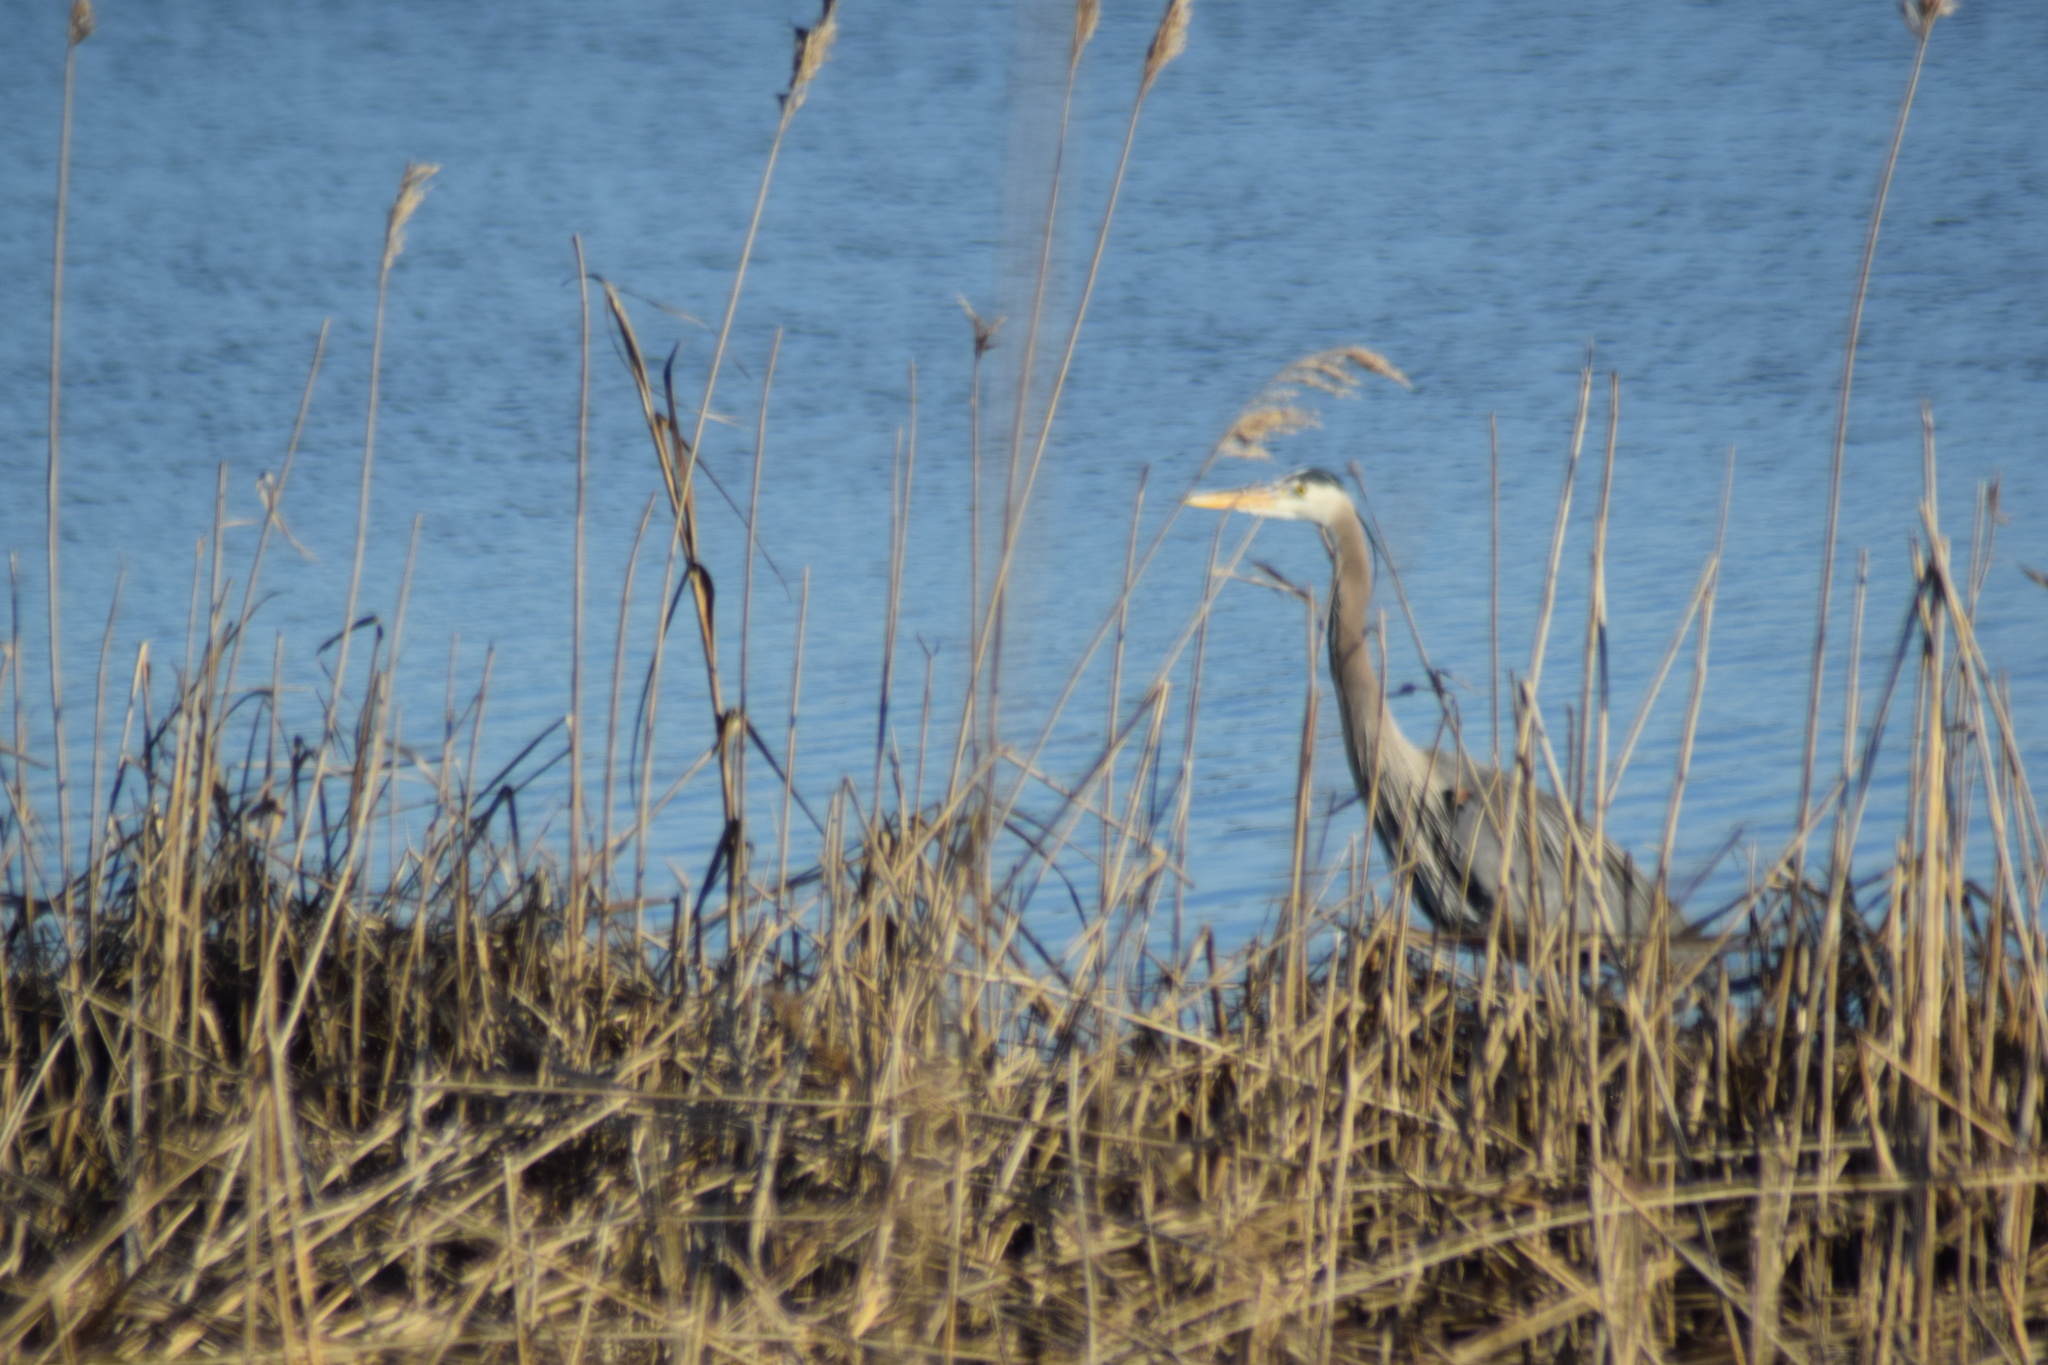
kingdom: Animalia
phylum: Chordata
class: Aves
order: Pelecaniformes
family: Ardeidae
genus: Ardea
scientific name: Ardea herodias
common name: Great blue heron
